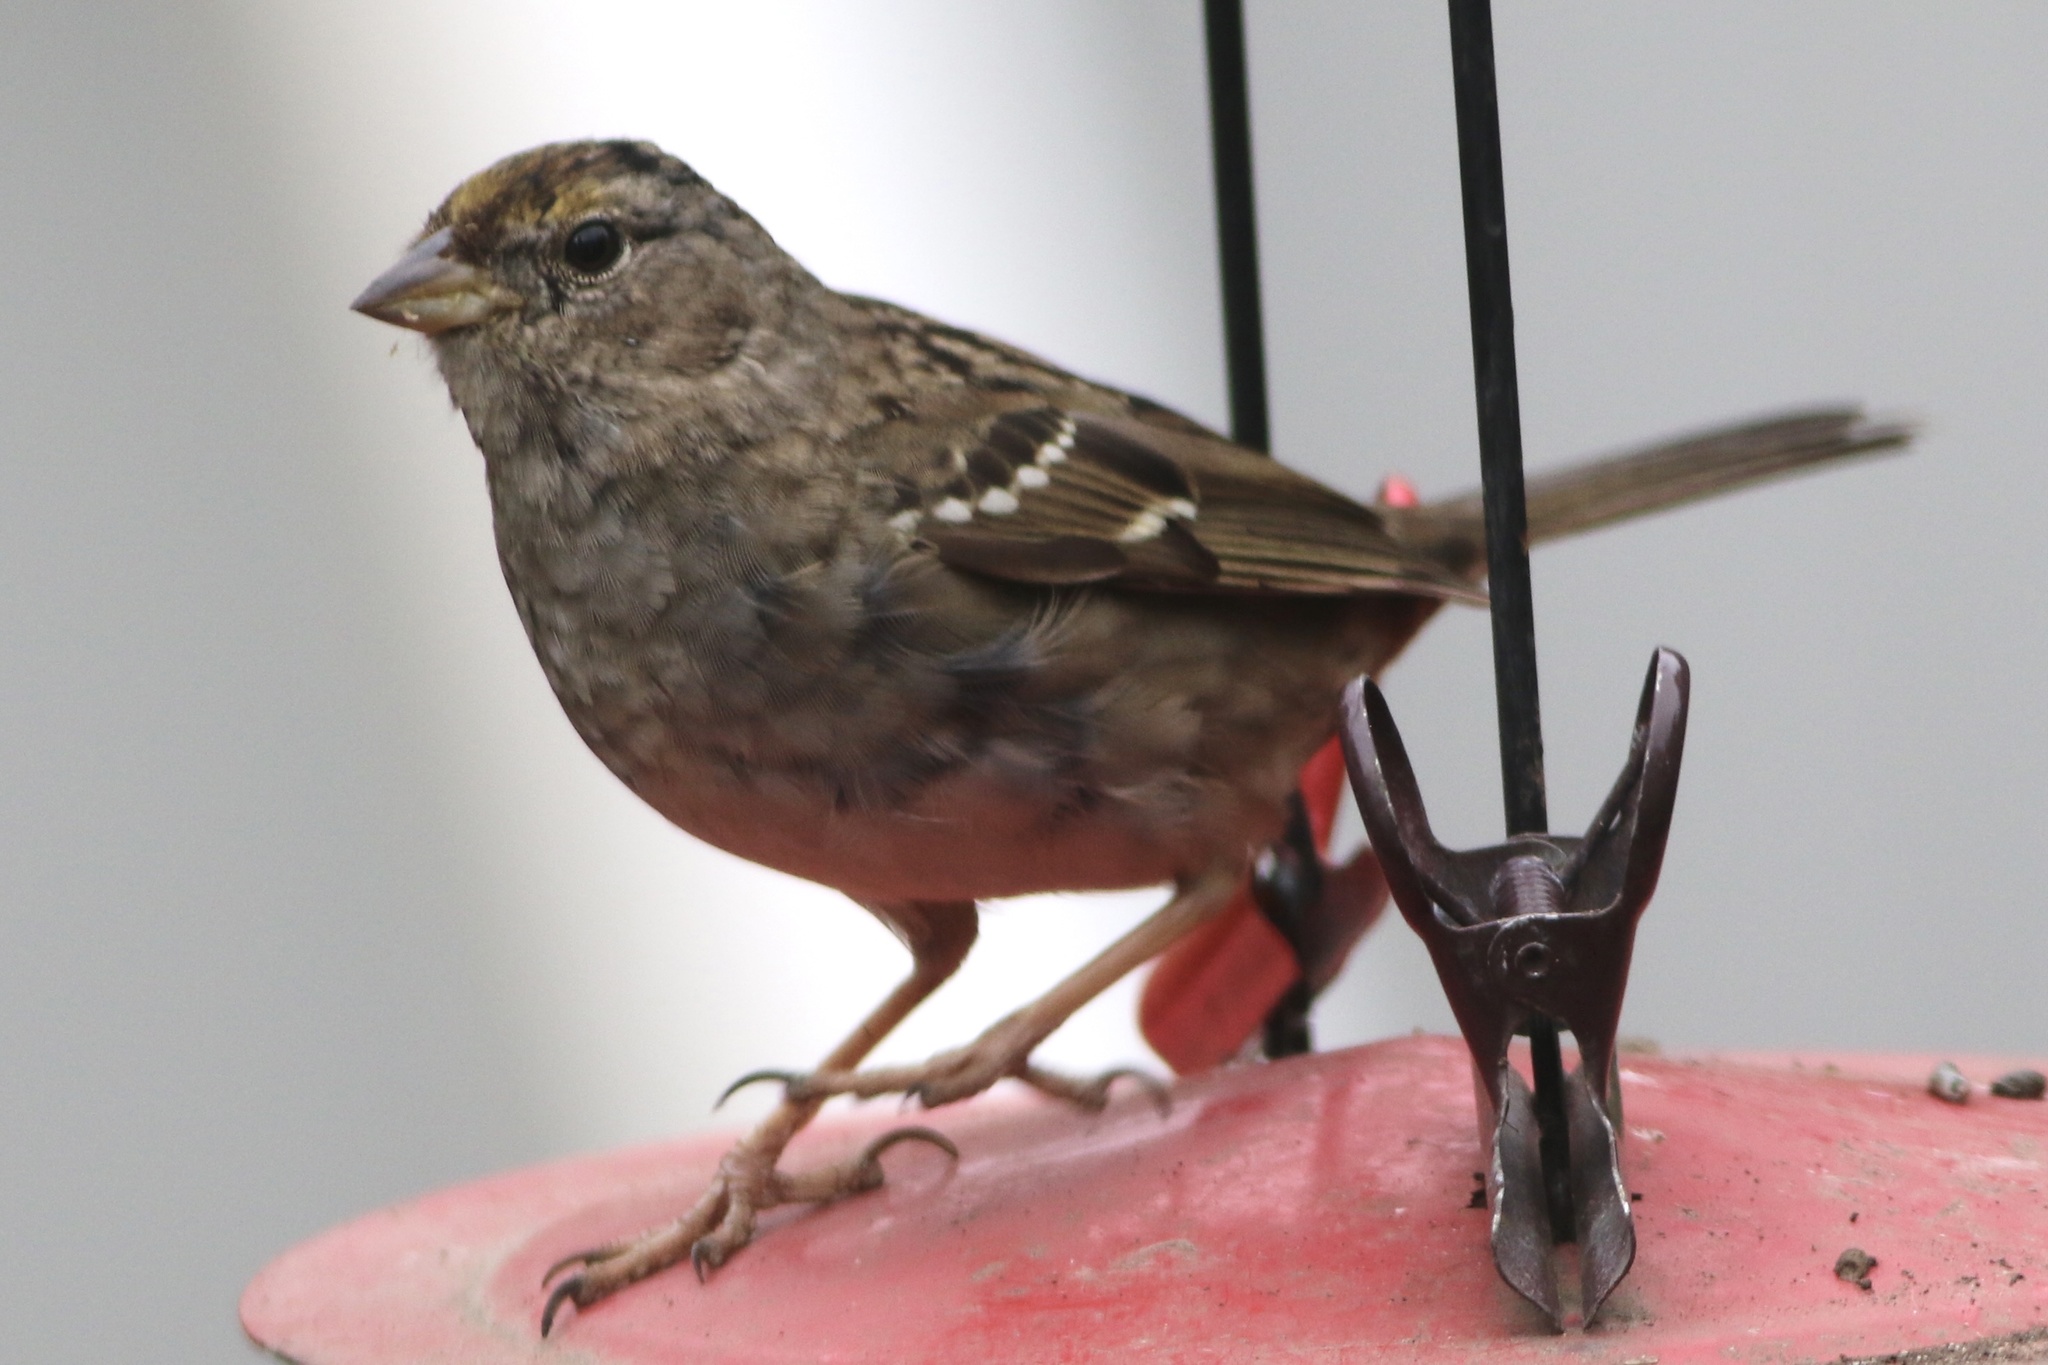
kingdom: Animalia
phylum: Chordata
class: Aves
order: Passeriformes
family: Passerellidae
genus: Zonotrichia
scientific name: Zonotrichia atricapilla
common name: Golden-crowned sparrow
